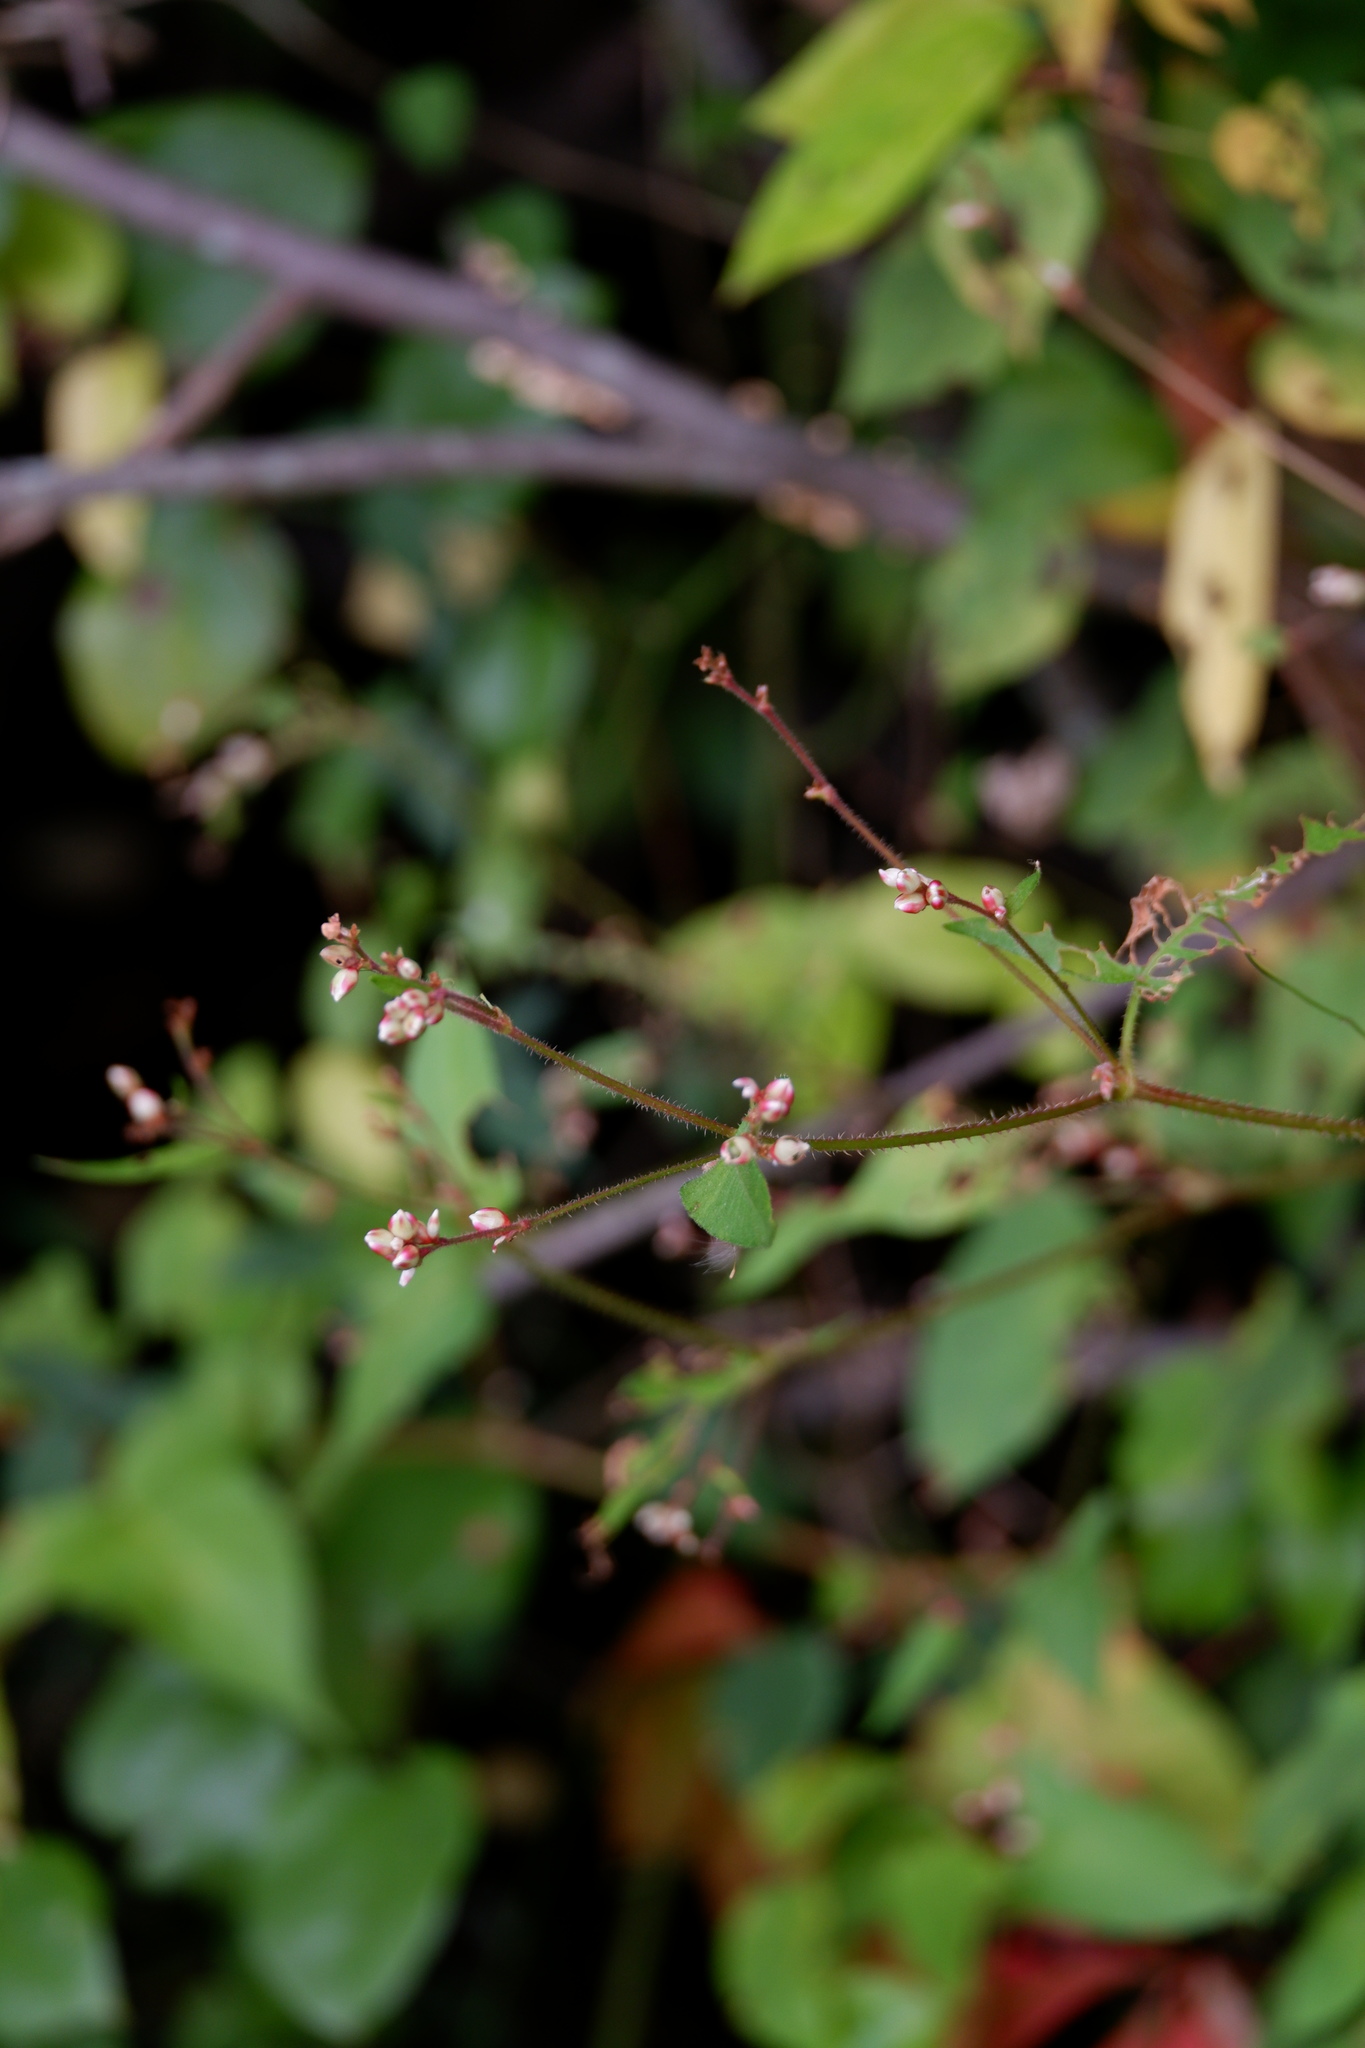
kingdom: Plantae
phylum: Tracheophyta
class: Magnoliopsida
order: Caryophyllales
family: Polygonaceae
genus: Persicaria
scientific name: Persicaria arifolia
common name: Halberd-leaved tear-thumb
